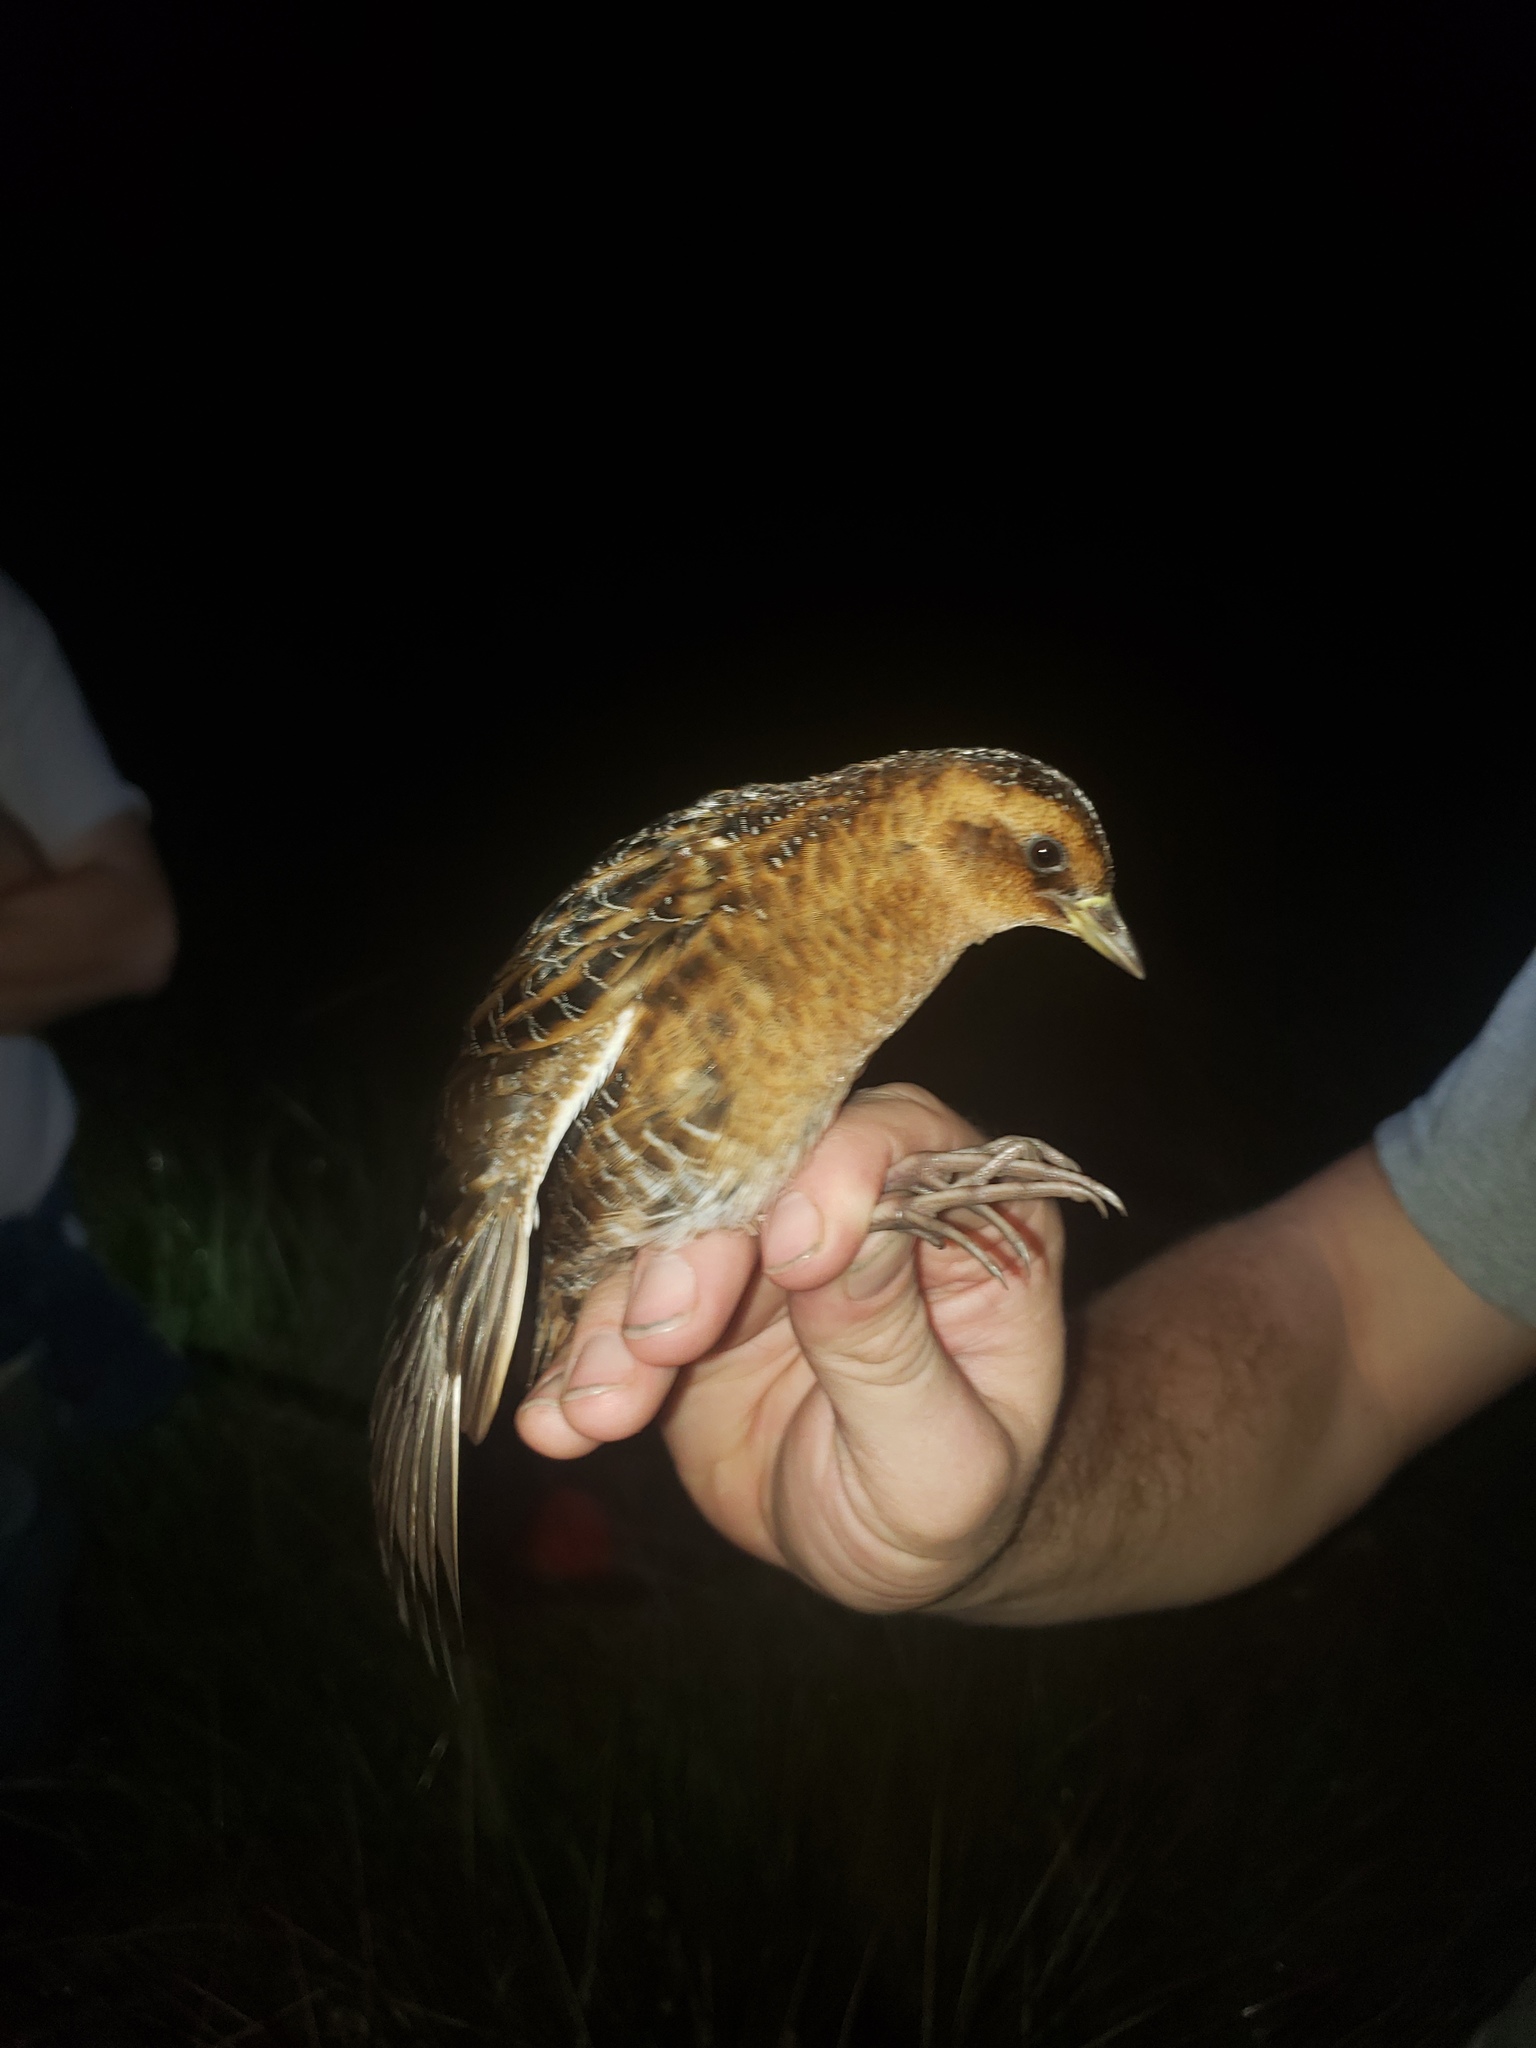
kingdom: Animalia
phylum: Chordata
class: Aves
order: Gruiformes
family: Rallidae
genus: Coturnicops
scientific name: Coturnicops noveboracensis
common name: Yellow rail
